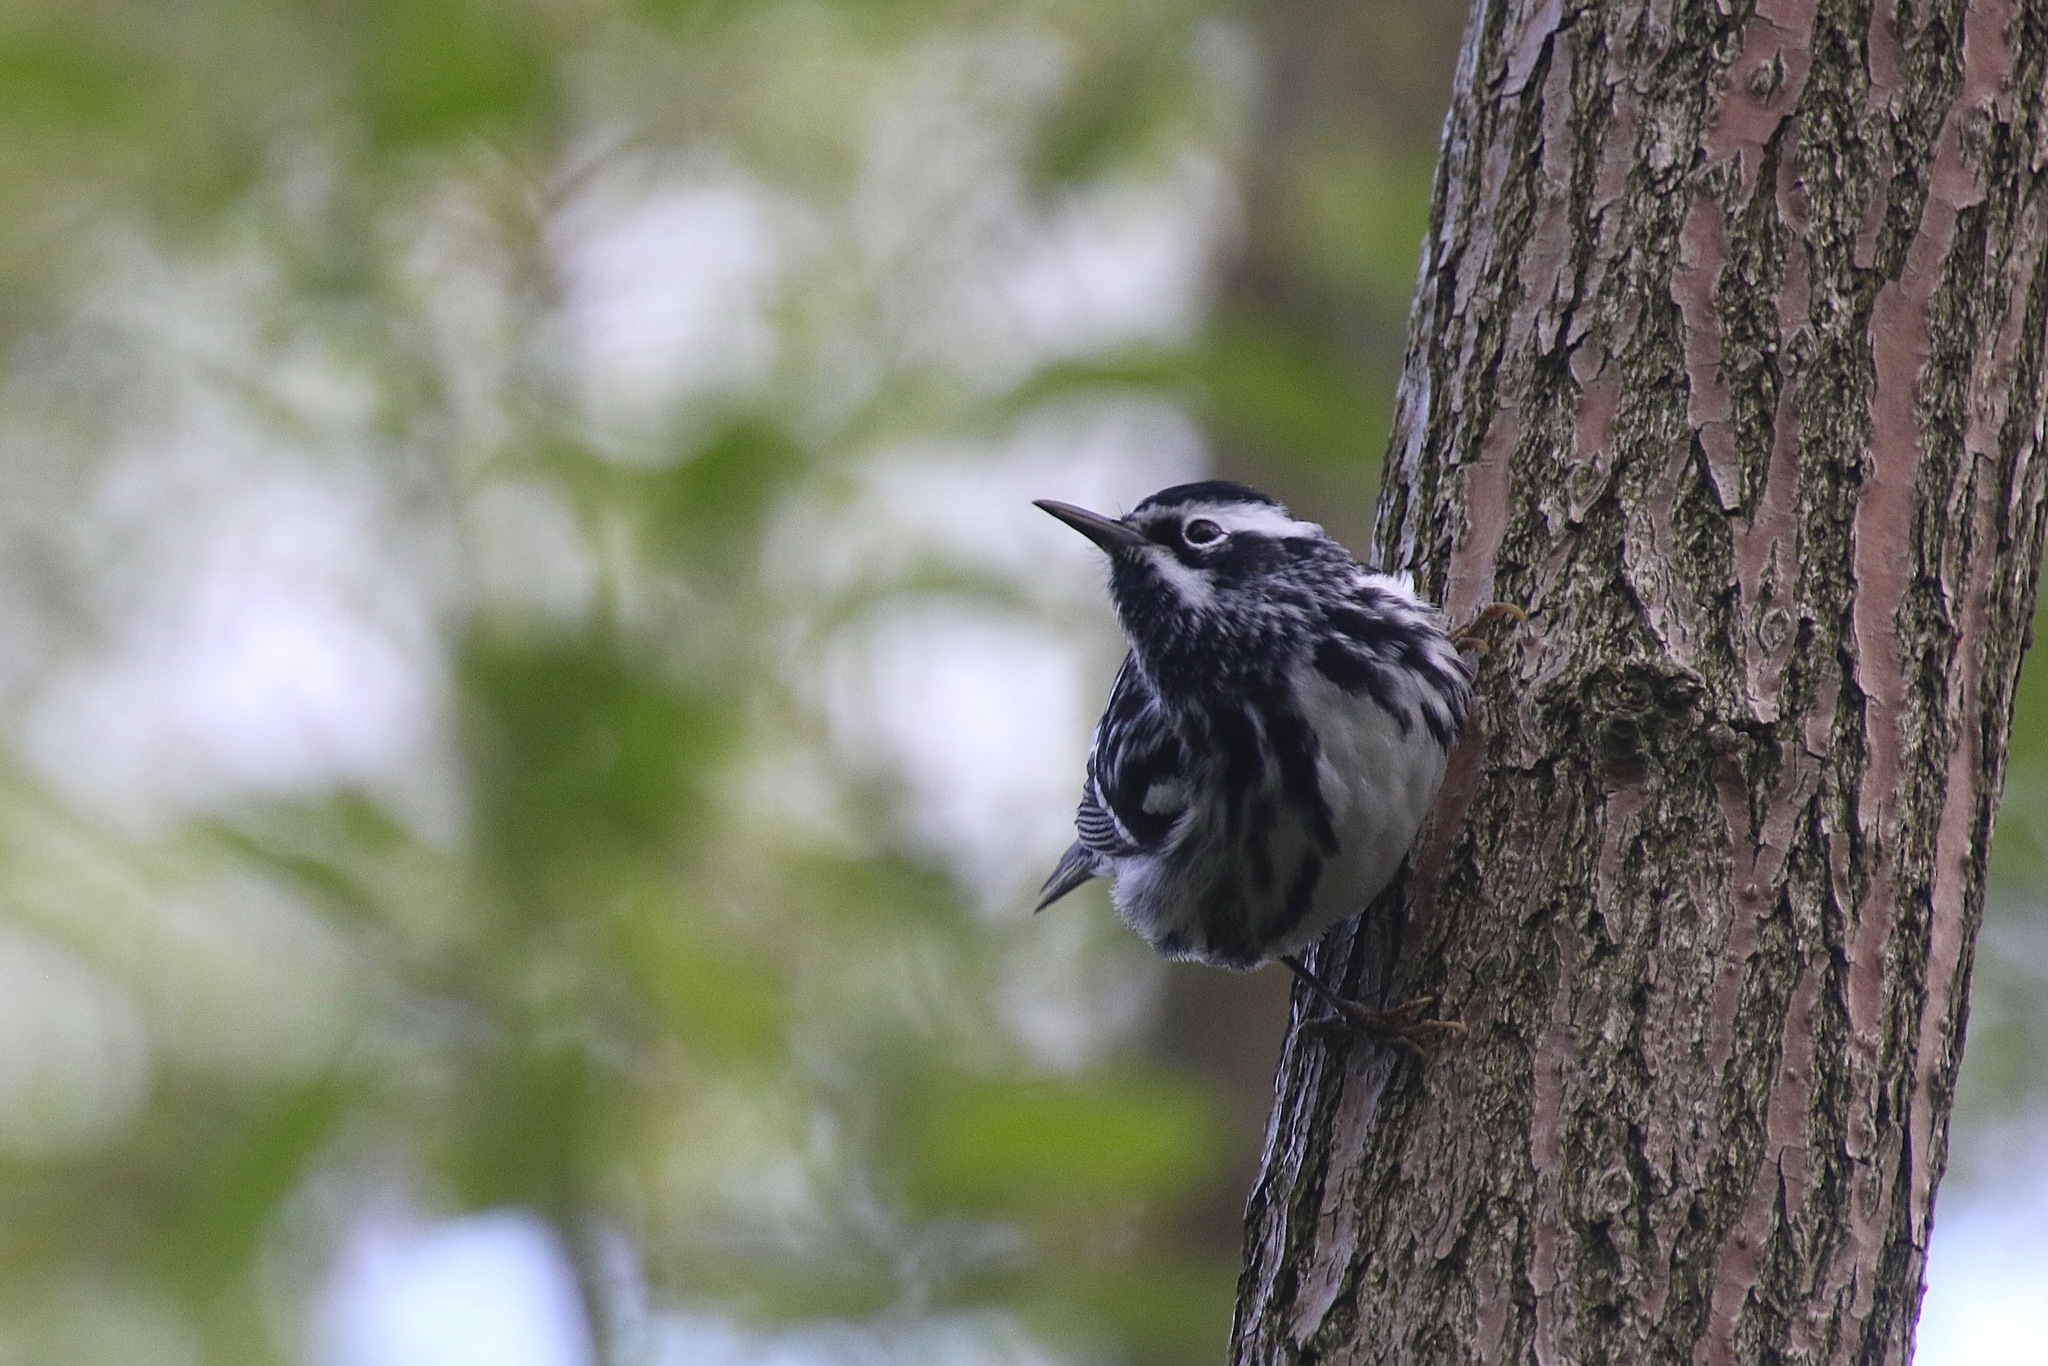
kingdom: Animalia
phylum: Chordata
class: Aves
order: Passeriformes
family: Parulidae
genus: Mniotilta
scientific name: Mniotilta varia
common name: Black-and-white warbler
